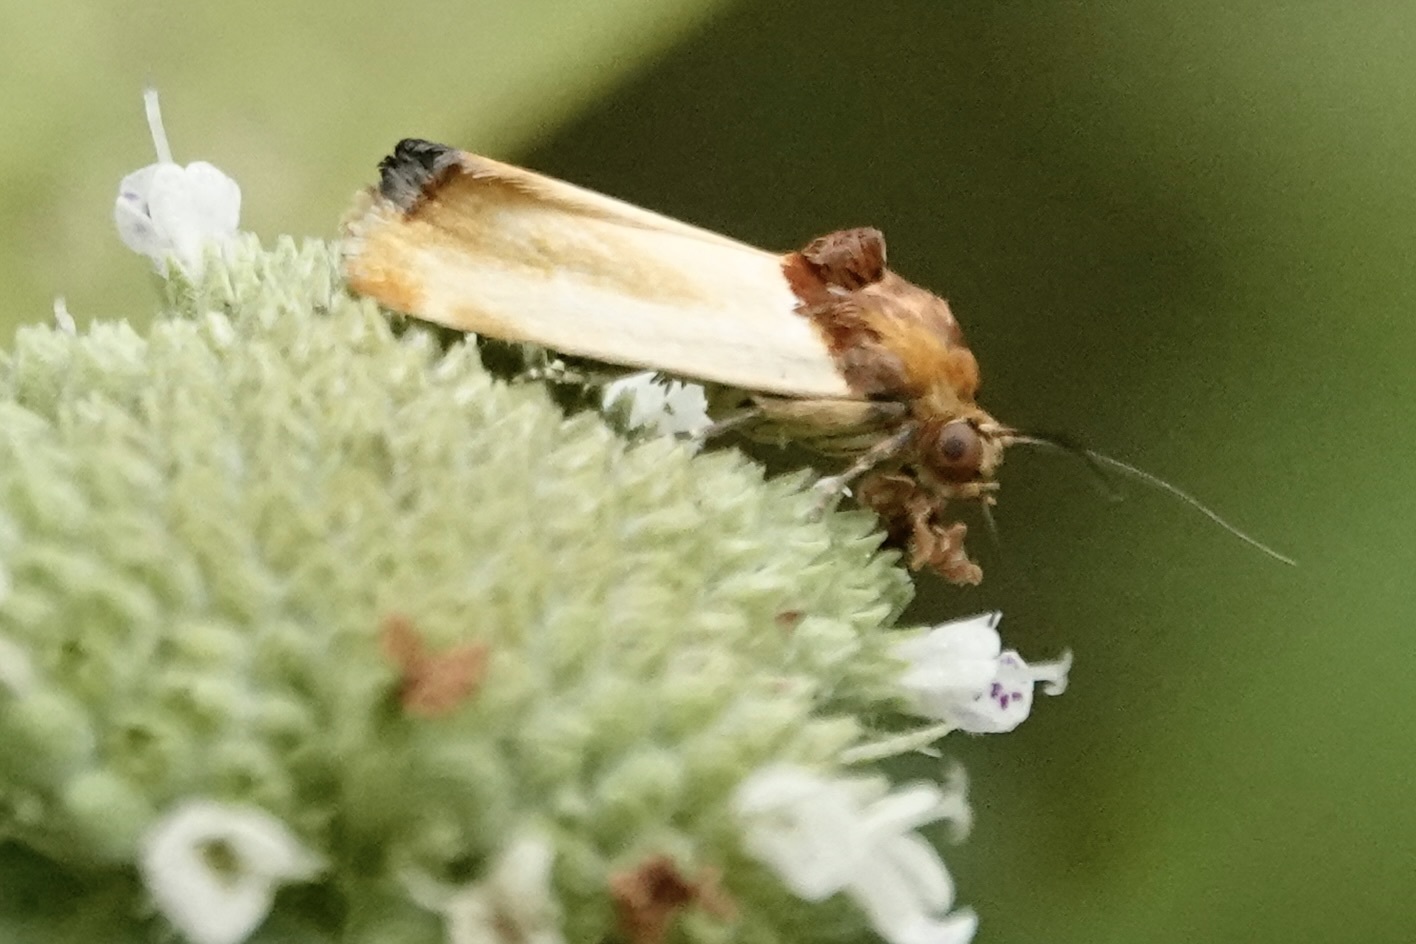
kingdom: Animalia
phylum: Arthropoda
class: Insecta
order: Lepidoptera
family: Noctuidae
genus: Spragueia
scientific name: Spragueia apicalis
